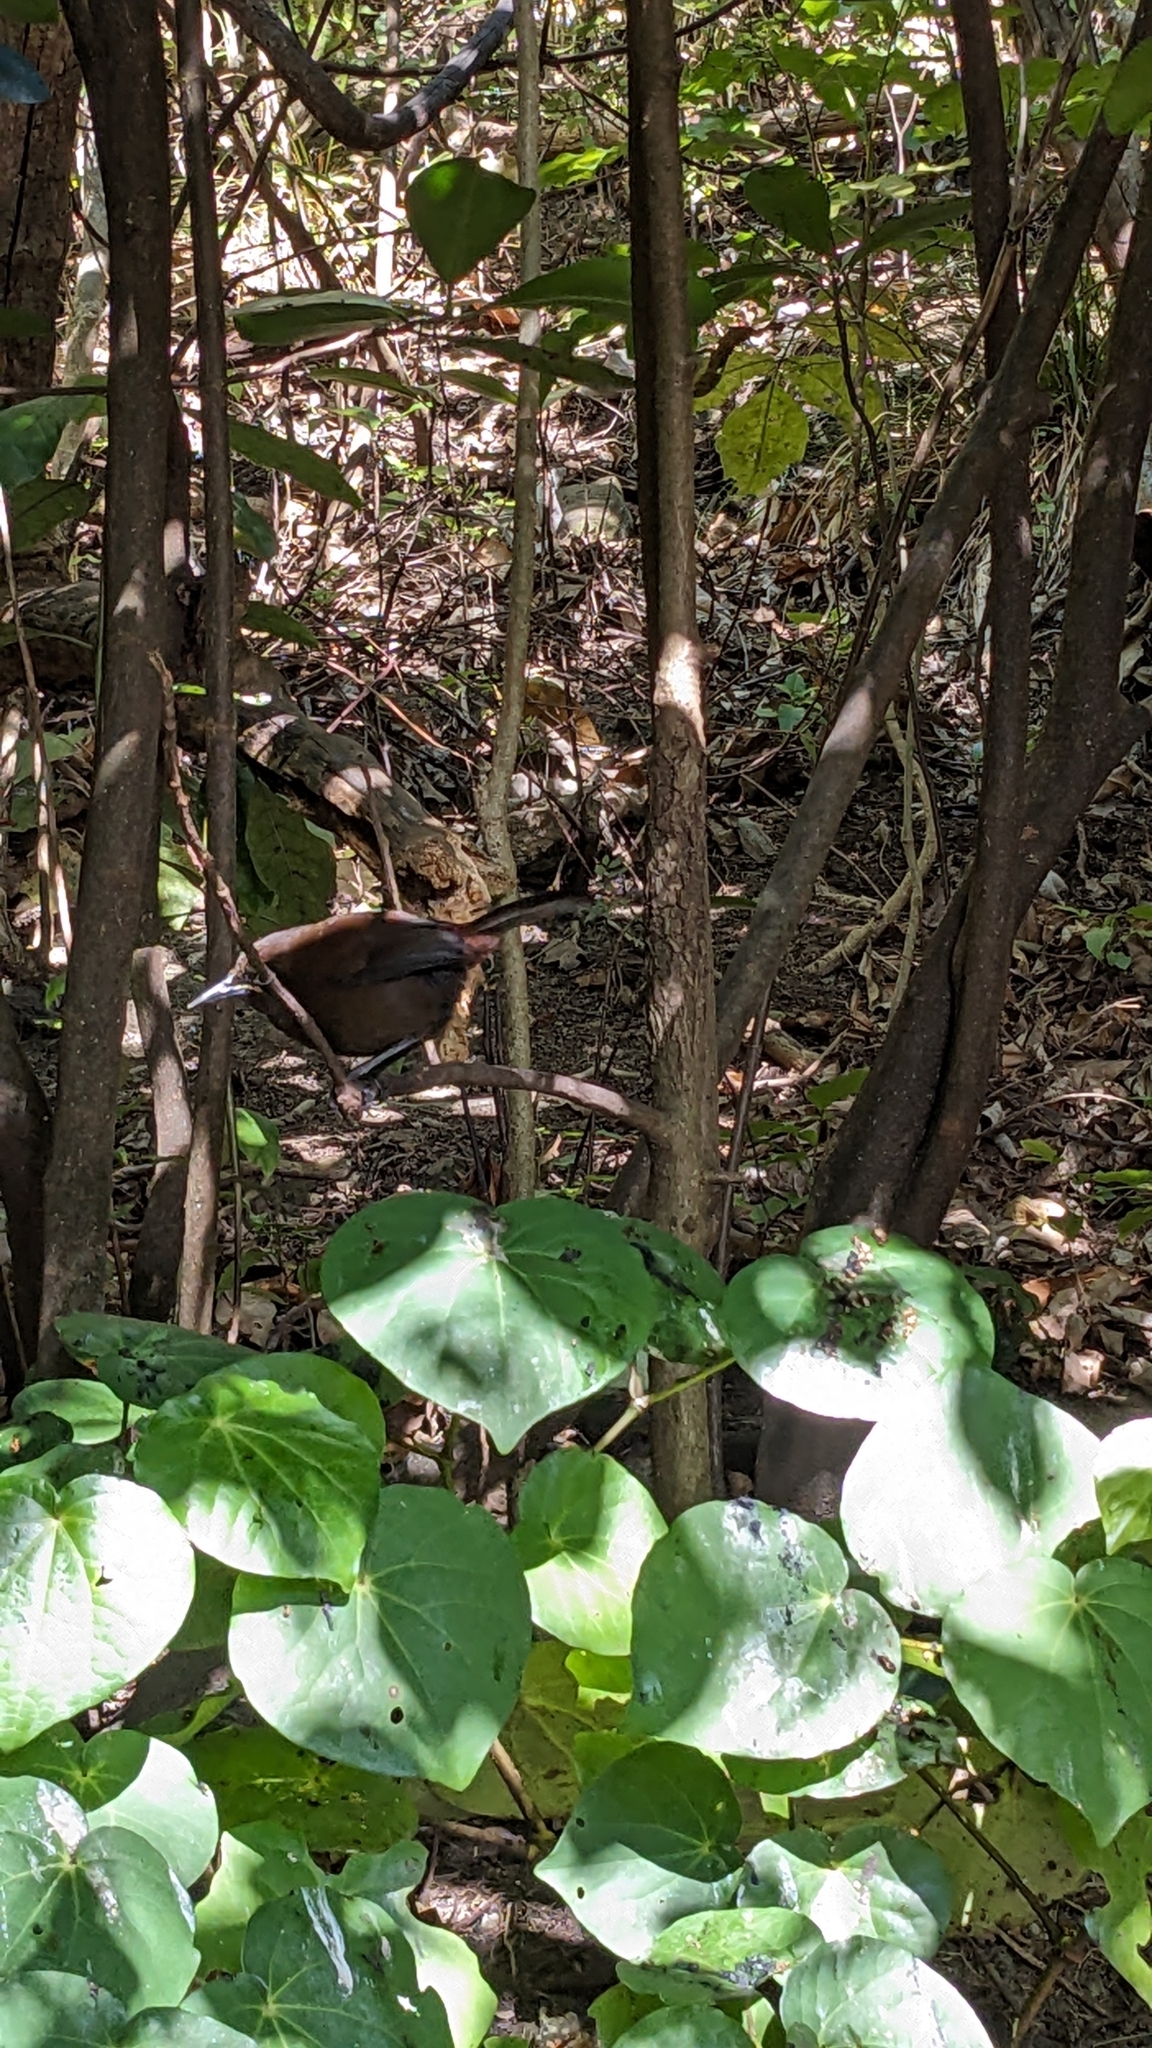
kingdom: Animalia
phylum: Chordata
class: Aves
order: Passeriformes
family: Callaeatidae
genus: Philesturnus
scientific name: Philesturnus carunculatus
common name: South island saddleback
